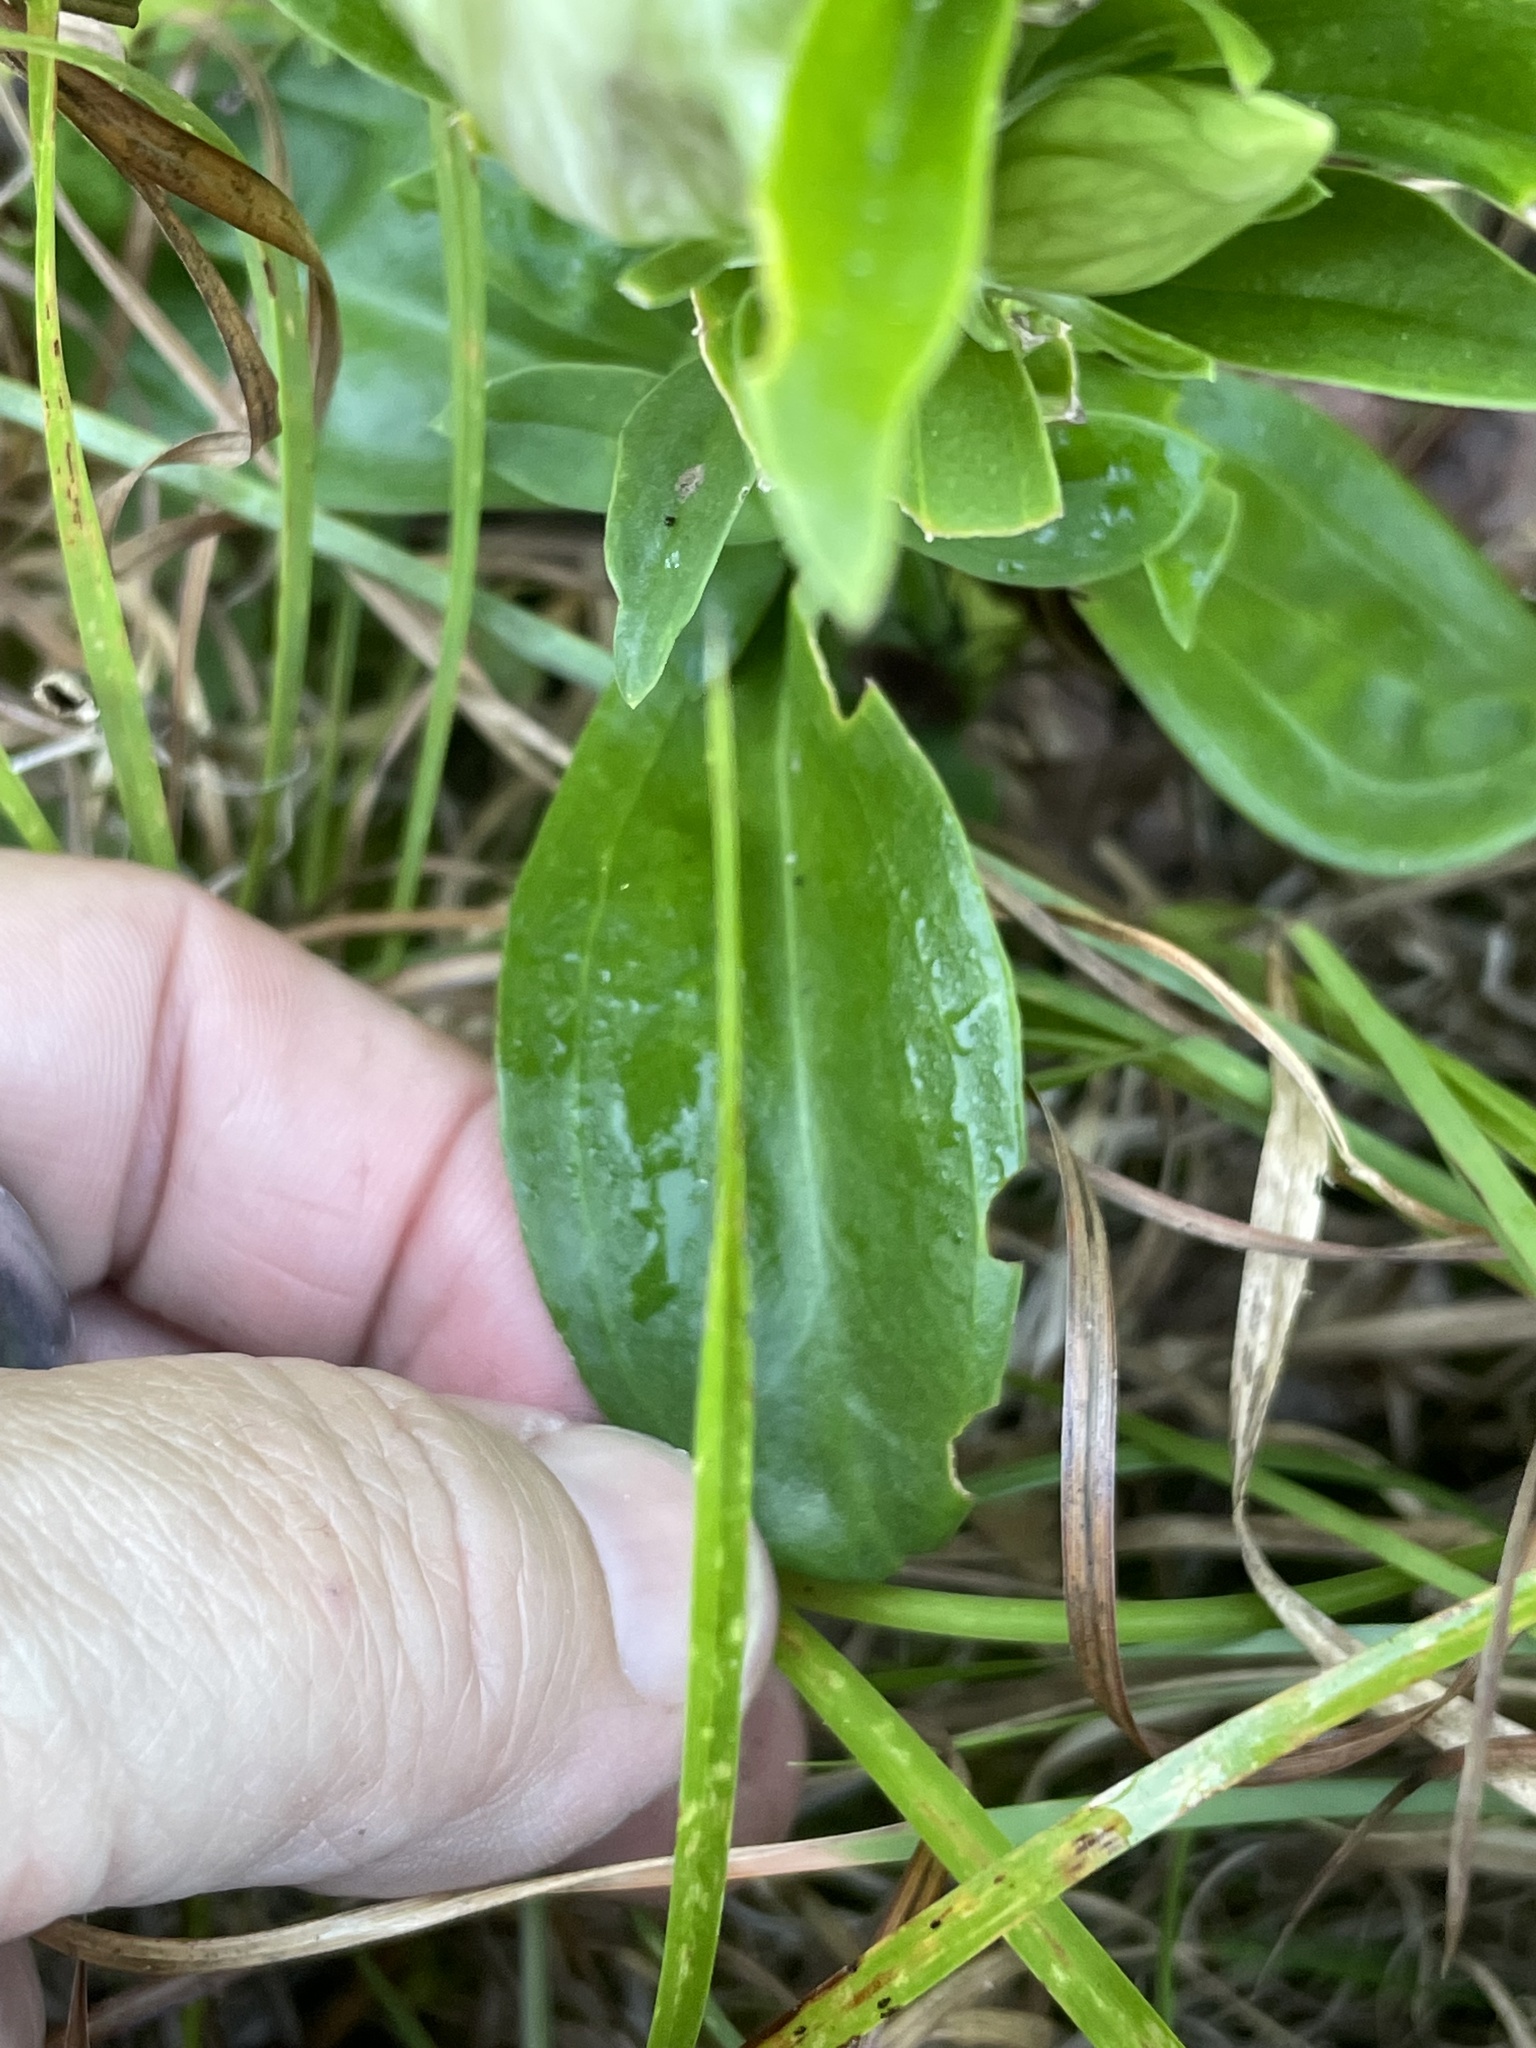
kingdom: Plantae
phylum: Tracheophyta
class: Magnoliopsida
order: Gentianales
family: Gentianaceae
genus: Gentiana
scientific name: Gentiana villosa
